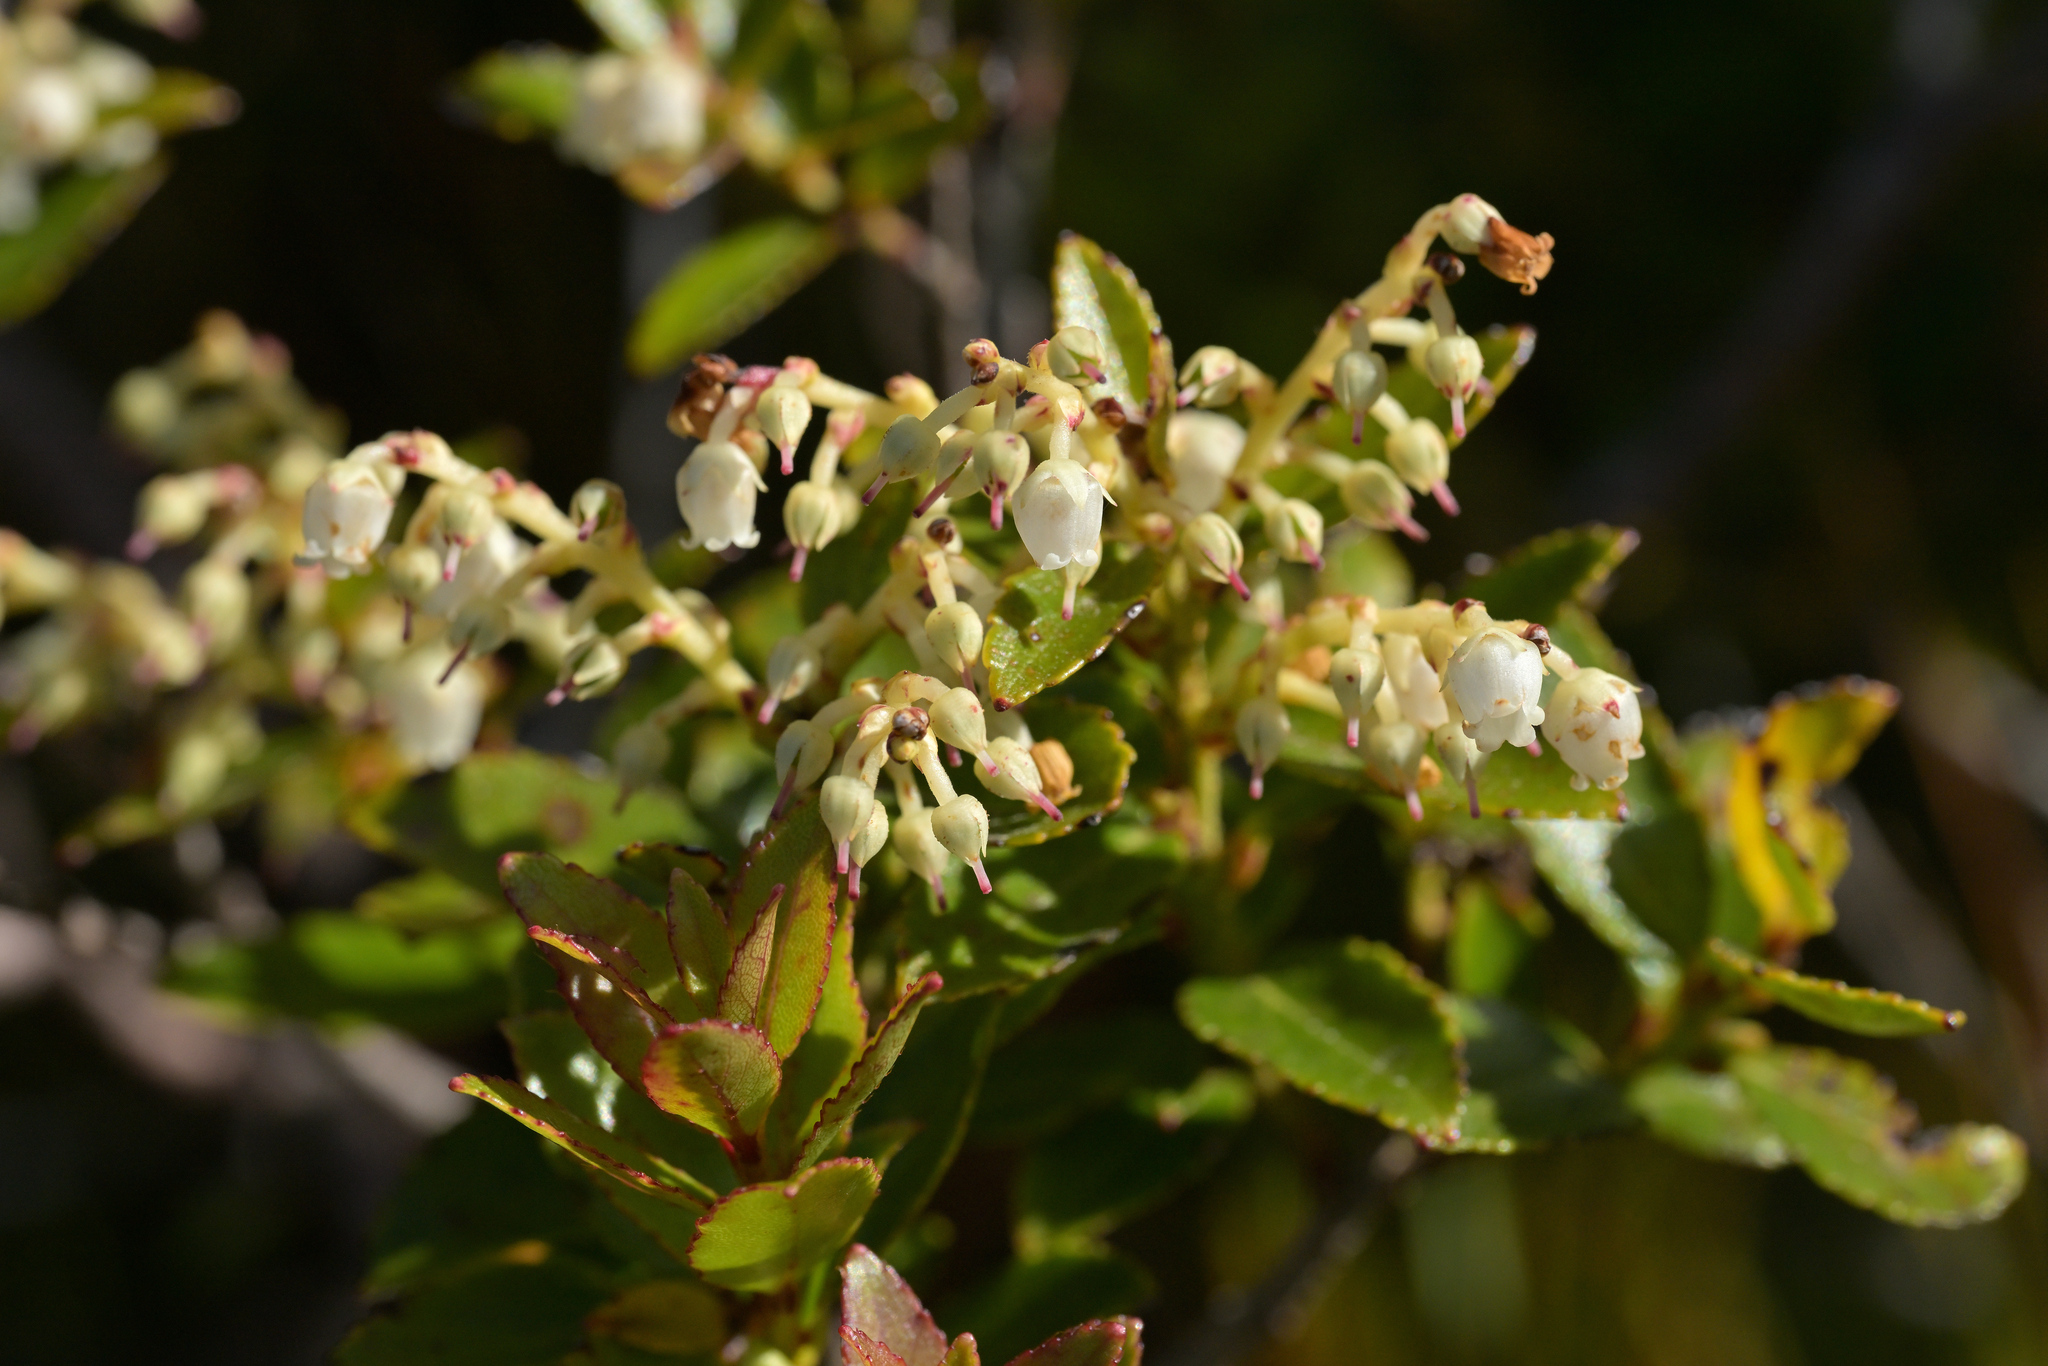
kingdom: Plantae
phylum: Tracheophyta
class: Magnoliopsida
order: Ericales
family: Ericaceae
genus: Gaultheria
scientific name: Gaultheria rupestris
